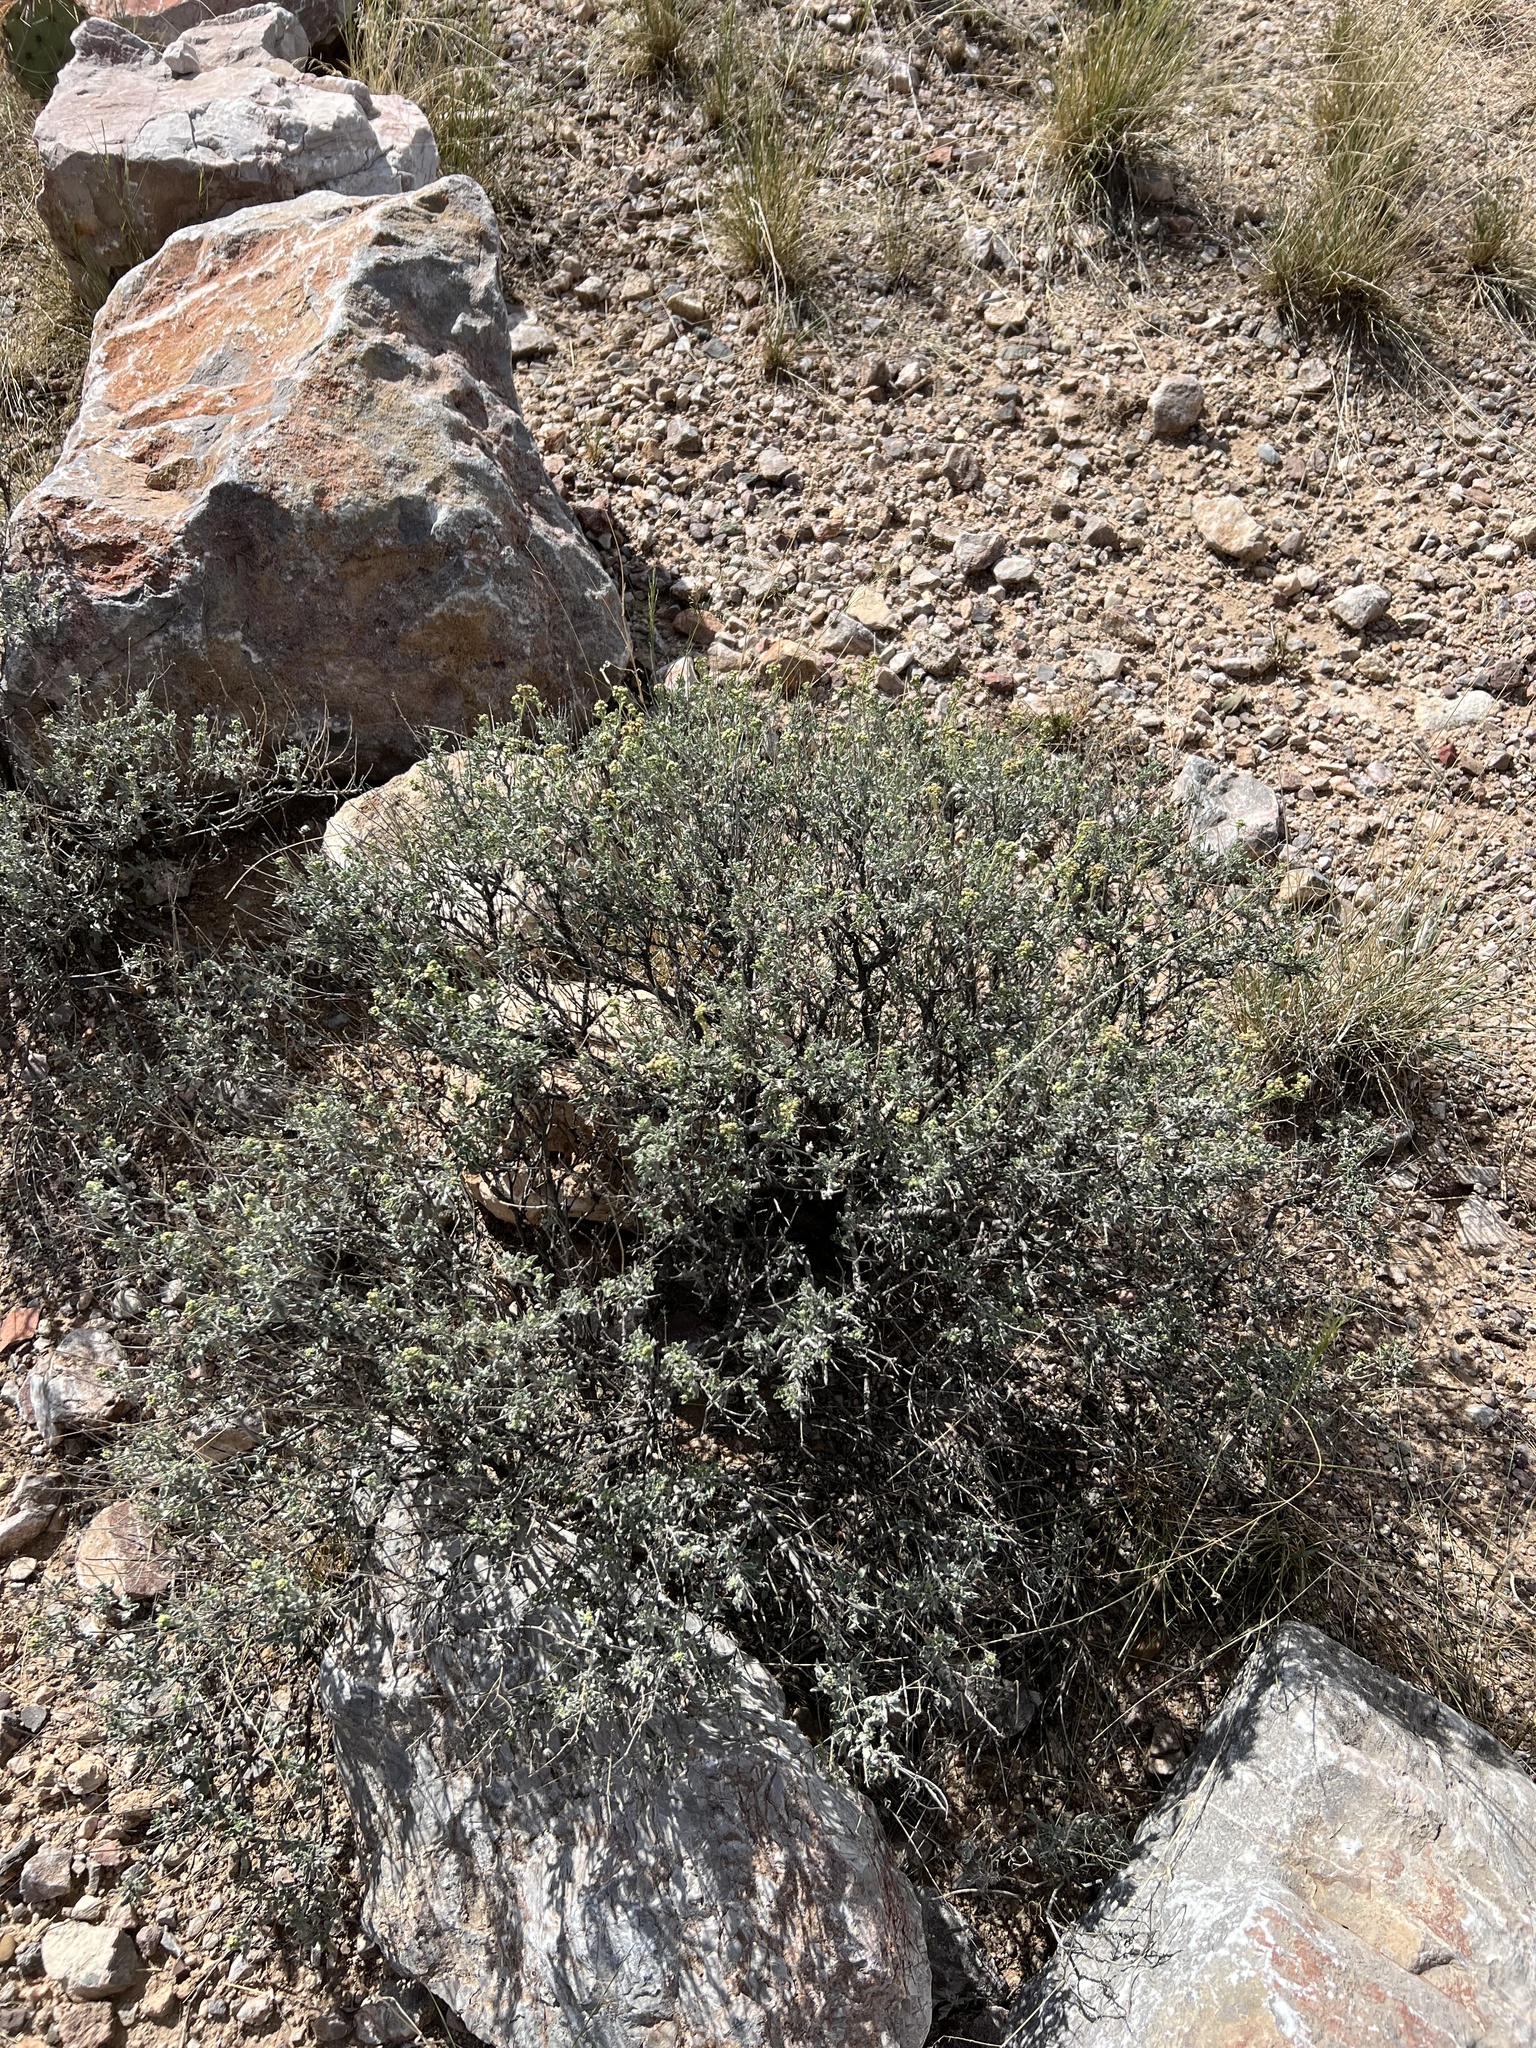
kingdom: Plantae
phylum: Tracheophyta
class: Magnoliopsida
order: Asterales
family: Asteraceae
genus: Parthenium
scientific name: Parthenium incanum
